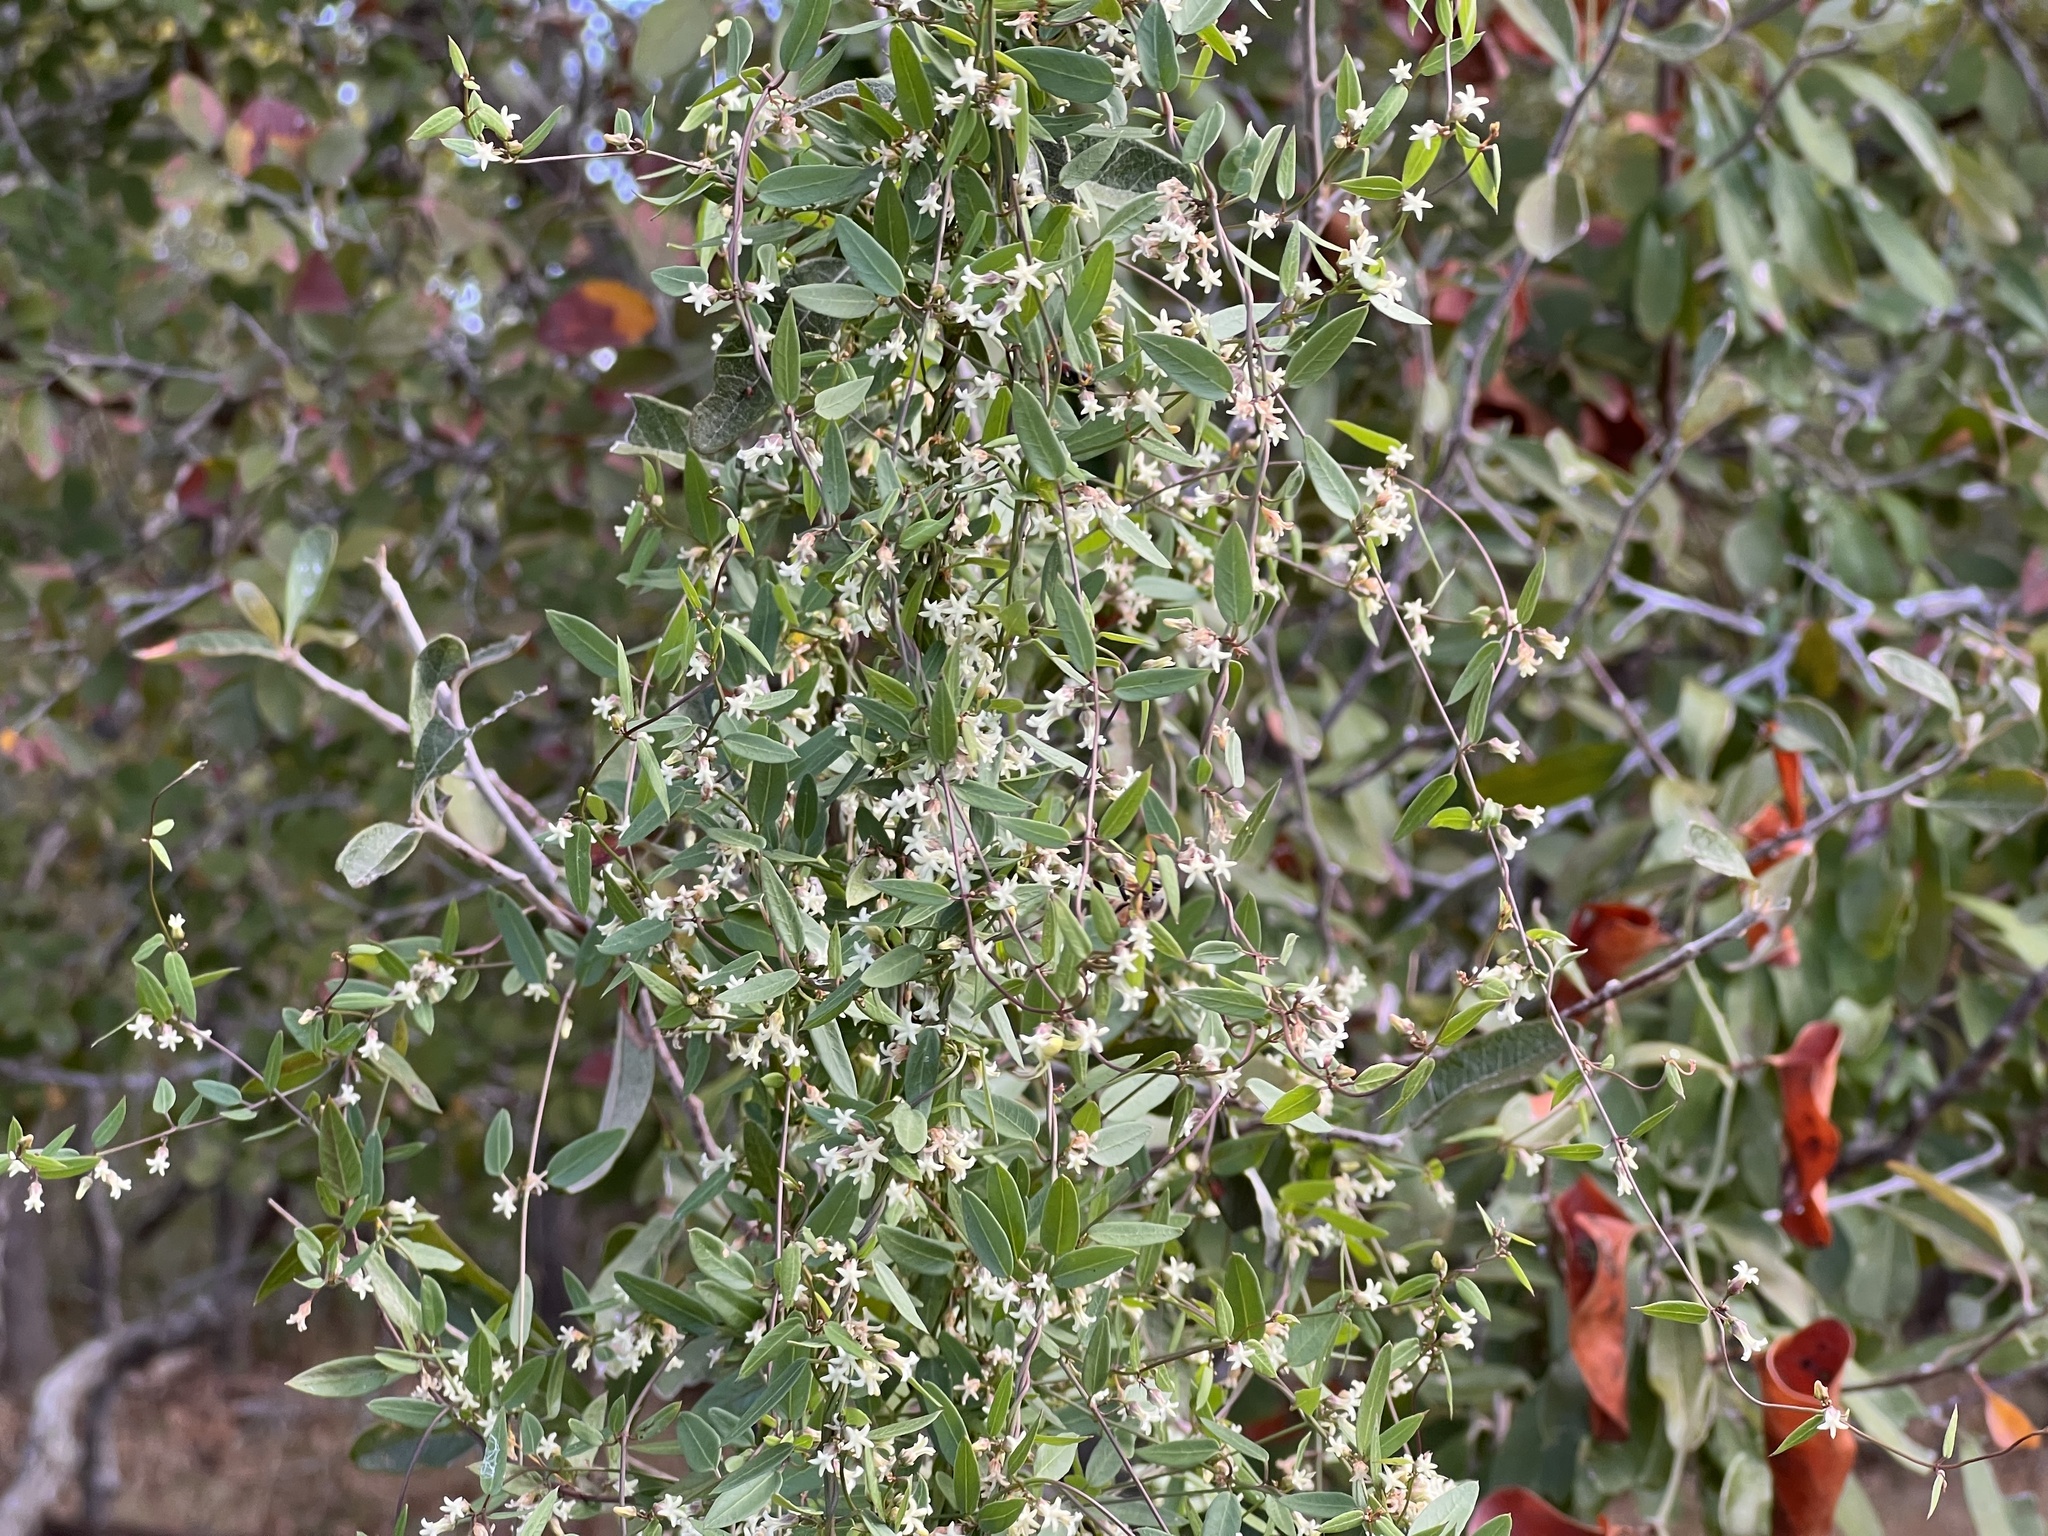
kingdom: Plantae
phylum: Tracheophyta
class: Magnoliopsida
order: Gentianales
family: Apocynaceae
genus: Metastelma
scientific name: Metastelma barbigerum
